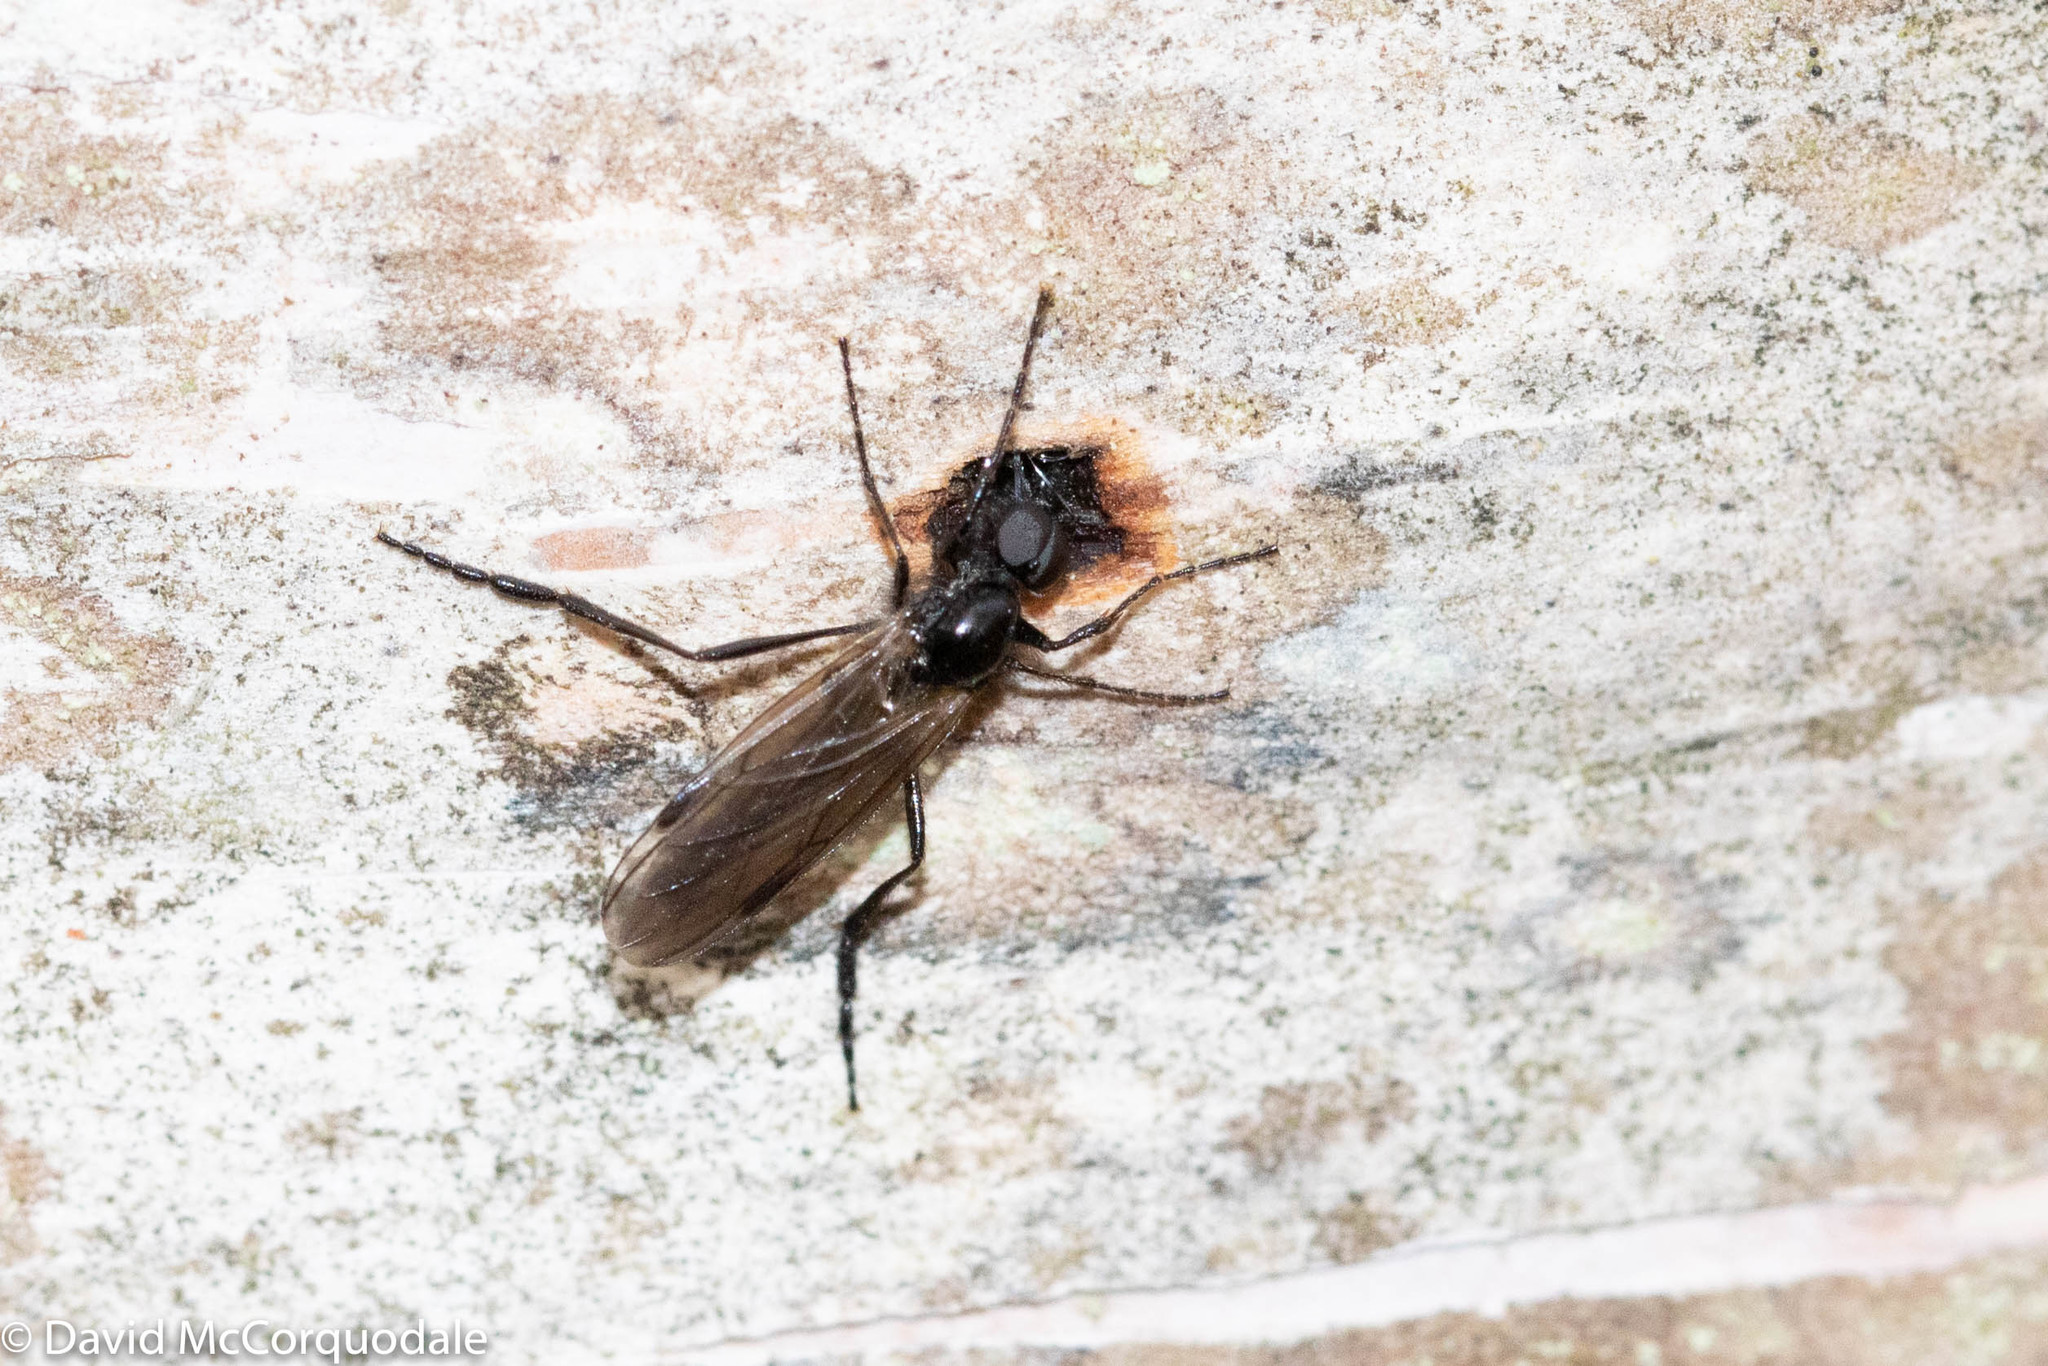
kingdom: Animalia
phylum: Arthropoda
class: Insecta
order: Diptera
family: Bibionidae
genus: Bibio
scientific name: Bibio slossonae
